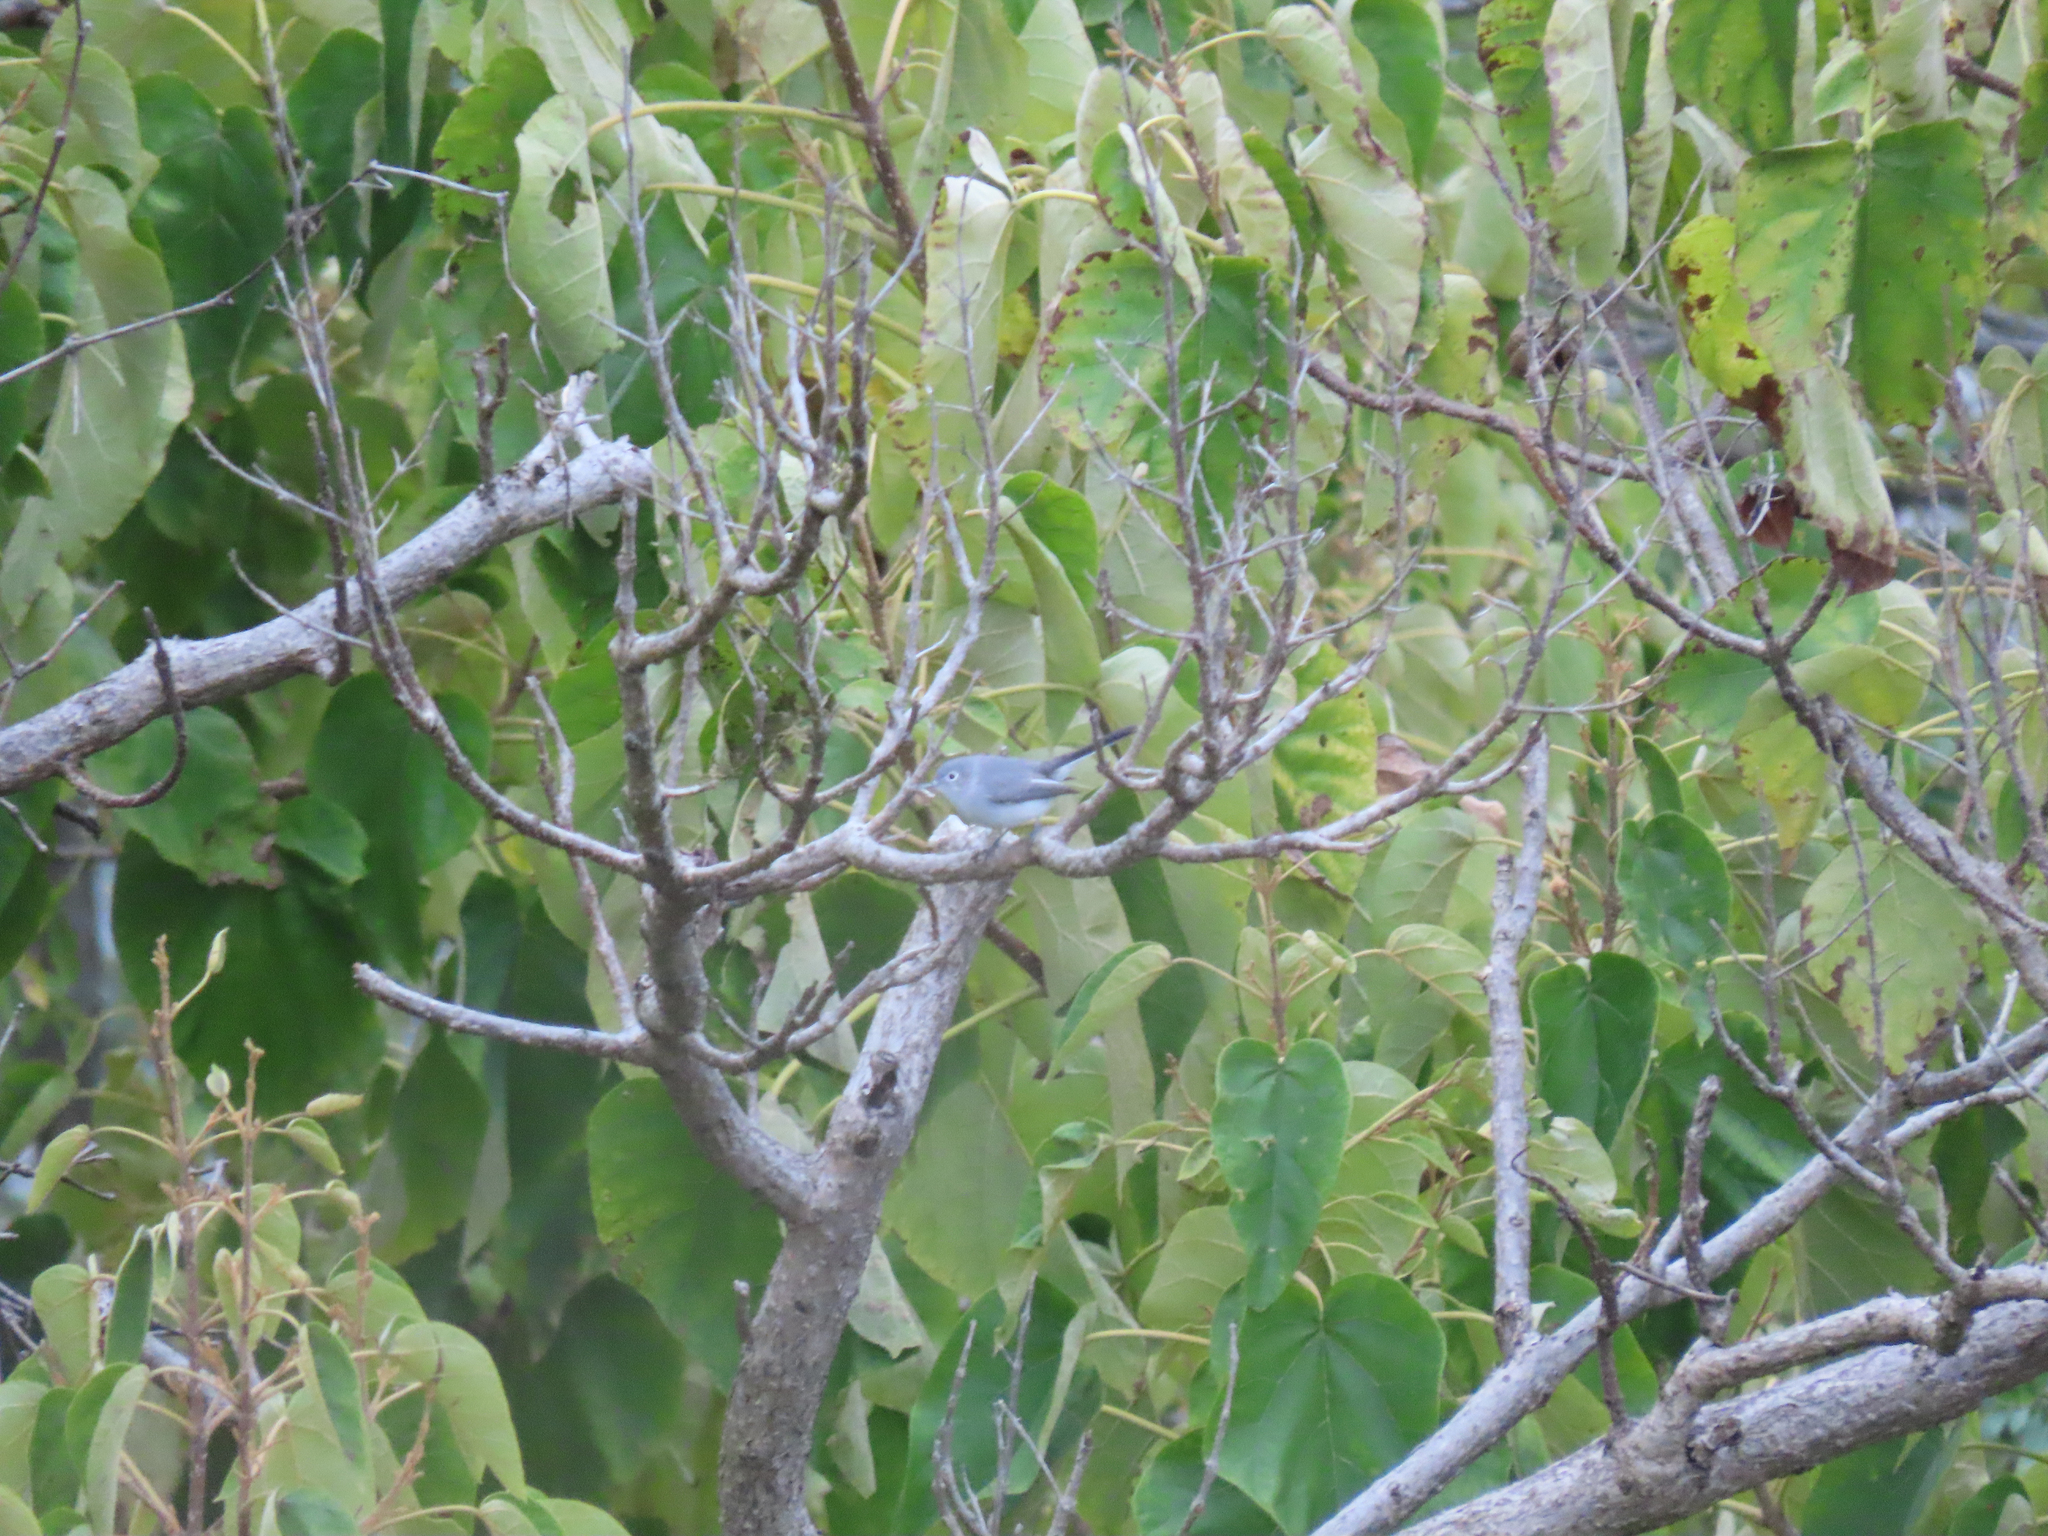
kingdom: Animalia
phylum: Chordata
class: Aves
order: Passeriformes
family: Polioptilidae
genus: Polioptila
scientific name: Polioptila caerulea
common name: Blue-gray gnatcatcher
